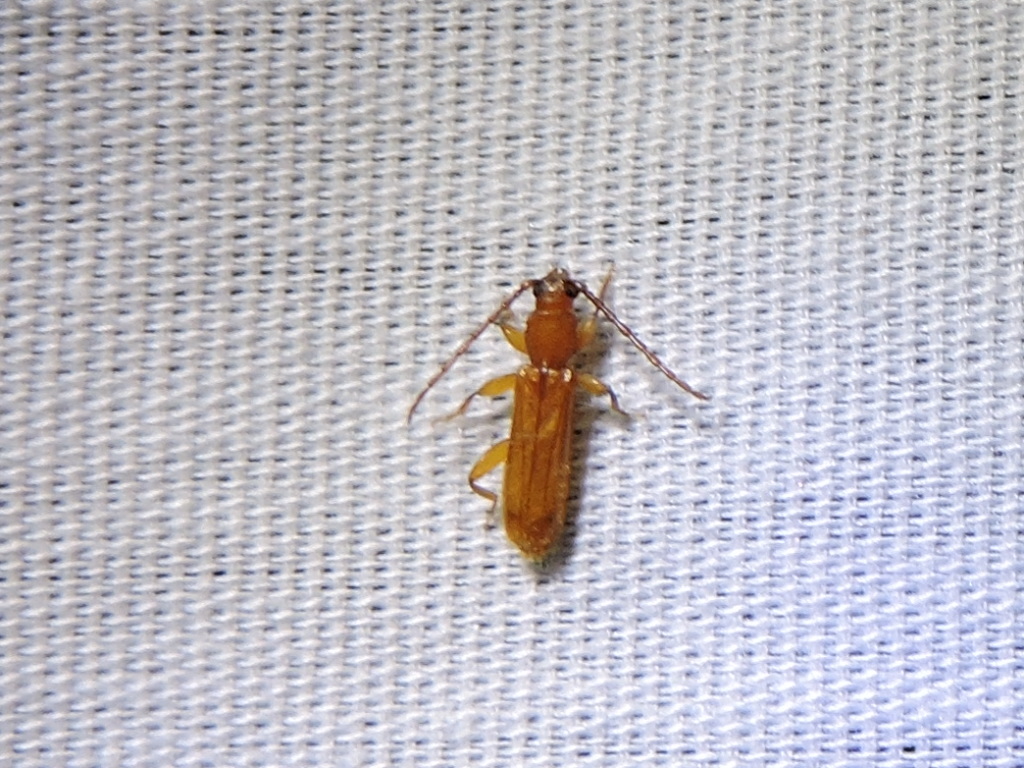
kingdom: Animalia
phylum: Arthropoda
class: Insecta
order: Coleoptera
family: Cerambycidae
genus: Smodicum
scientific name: Smodicum cucujiforme
